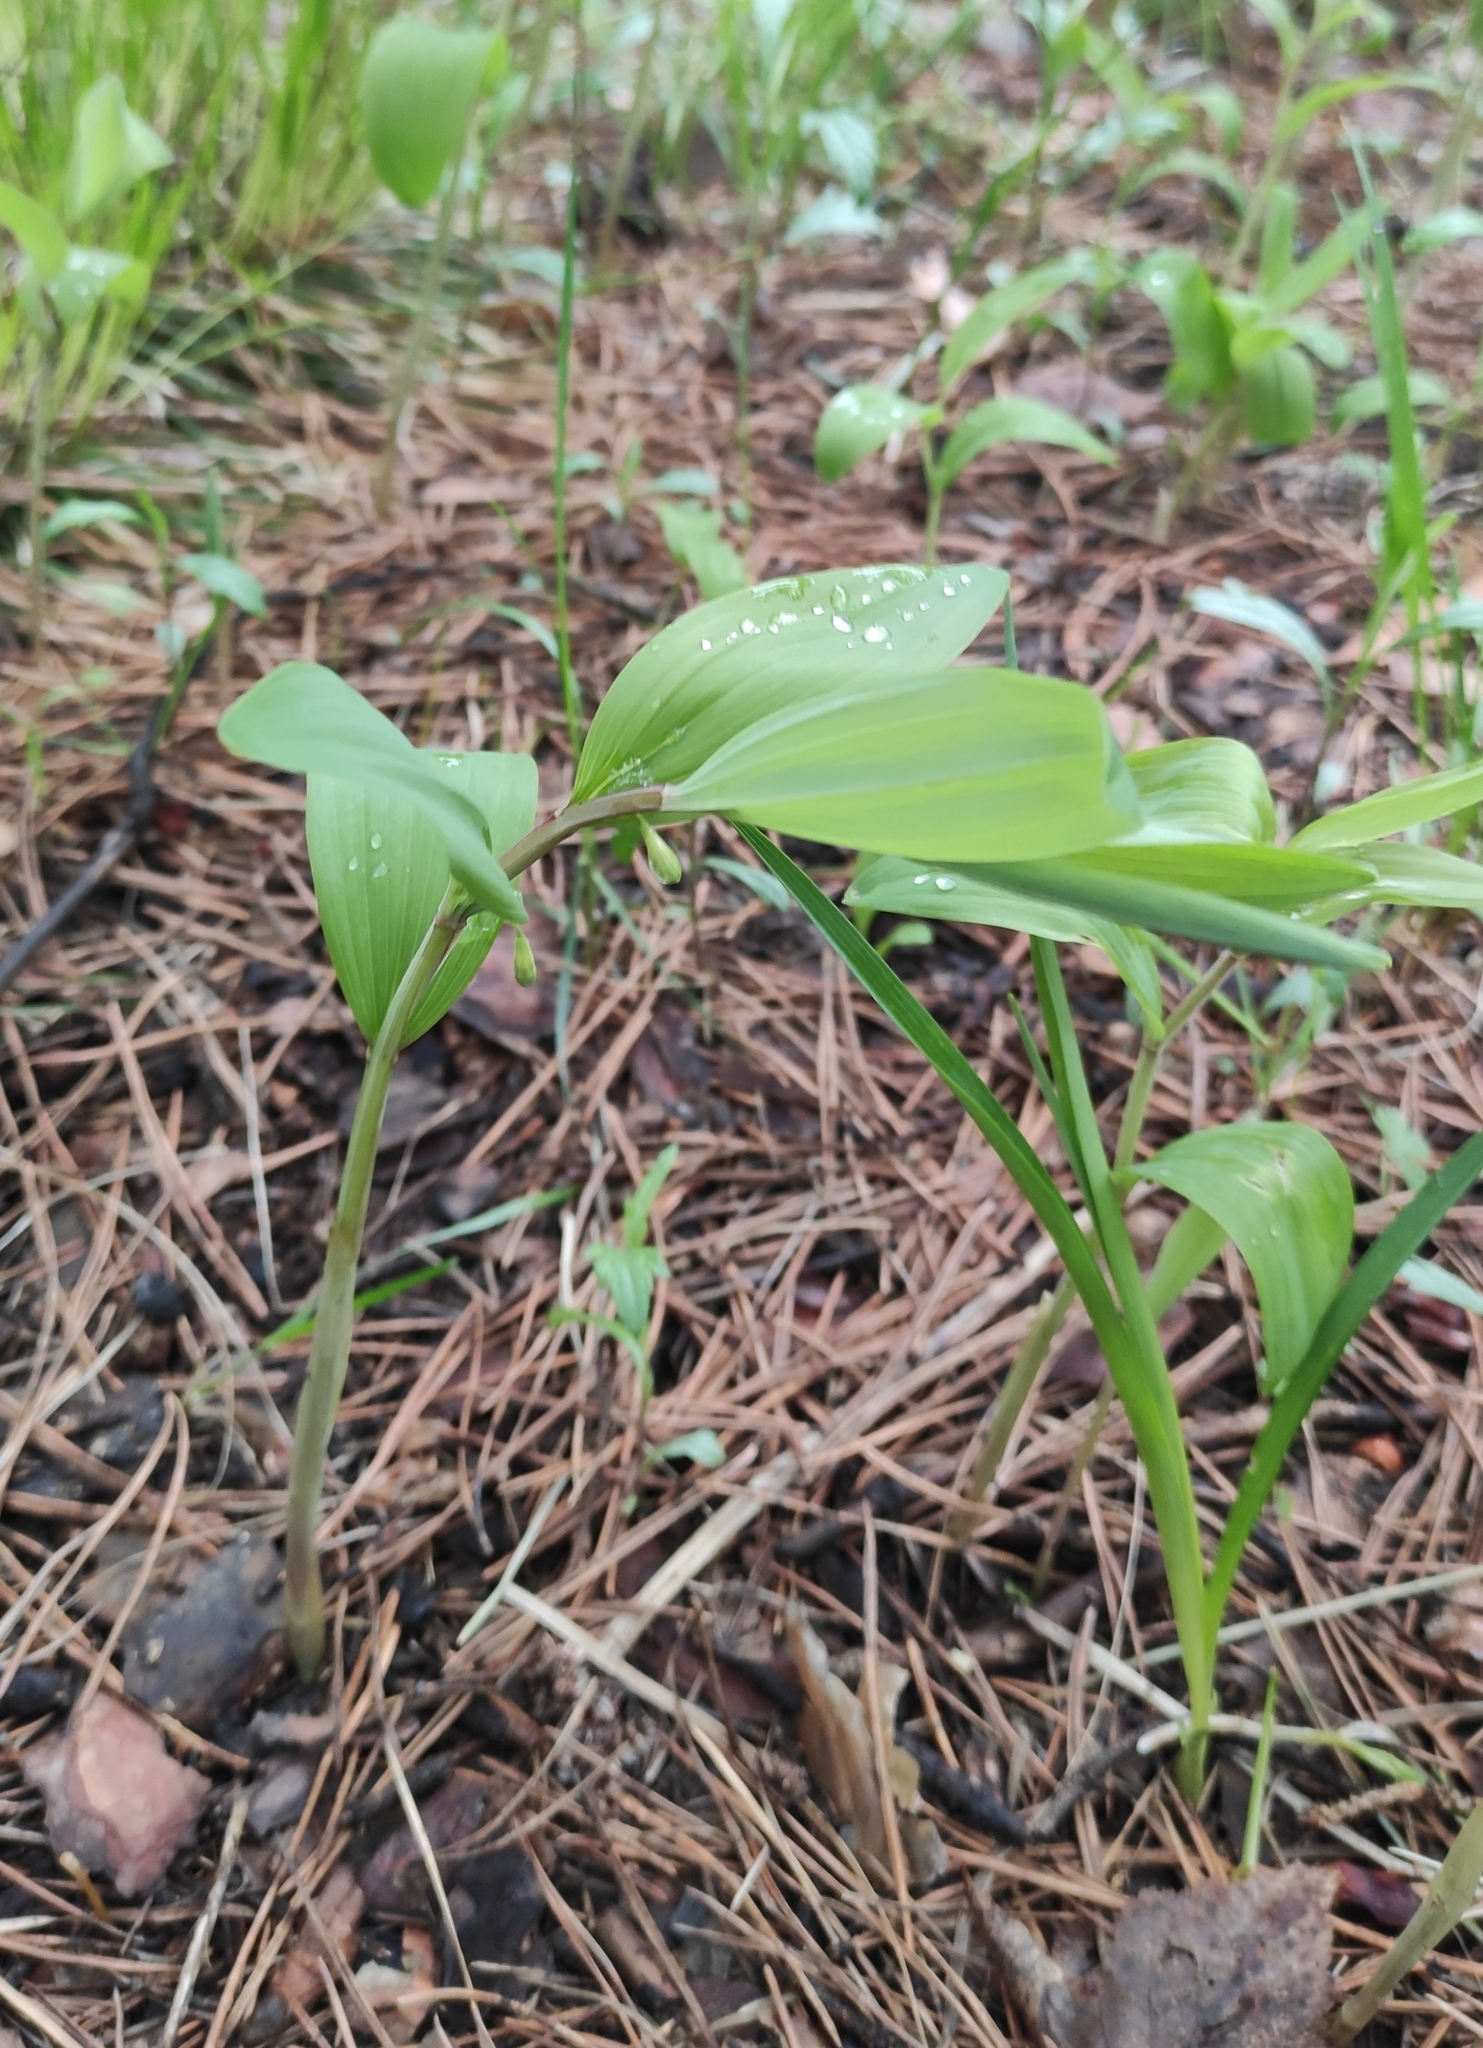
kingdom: Plantae
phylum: Tracheophyta
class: Liliopsida
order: Asparagales
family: Asparagaceae
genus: Polygonatum
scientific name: Polygonatum odoratum
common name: Angular solomon's-seal
